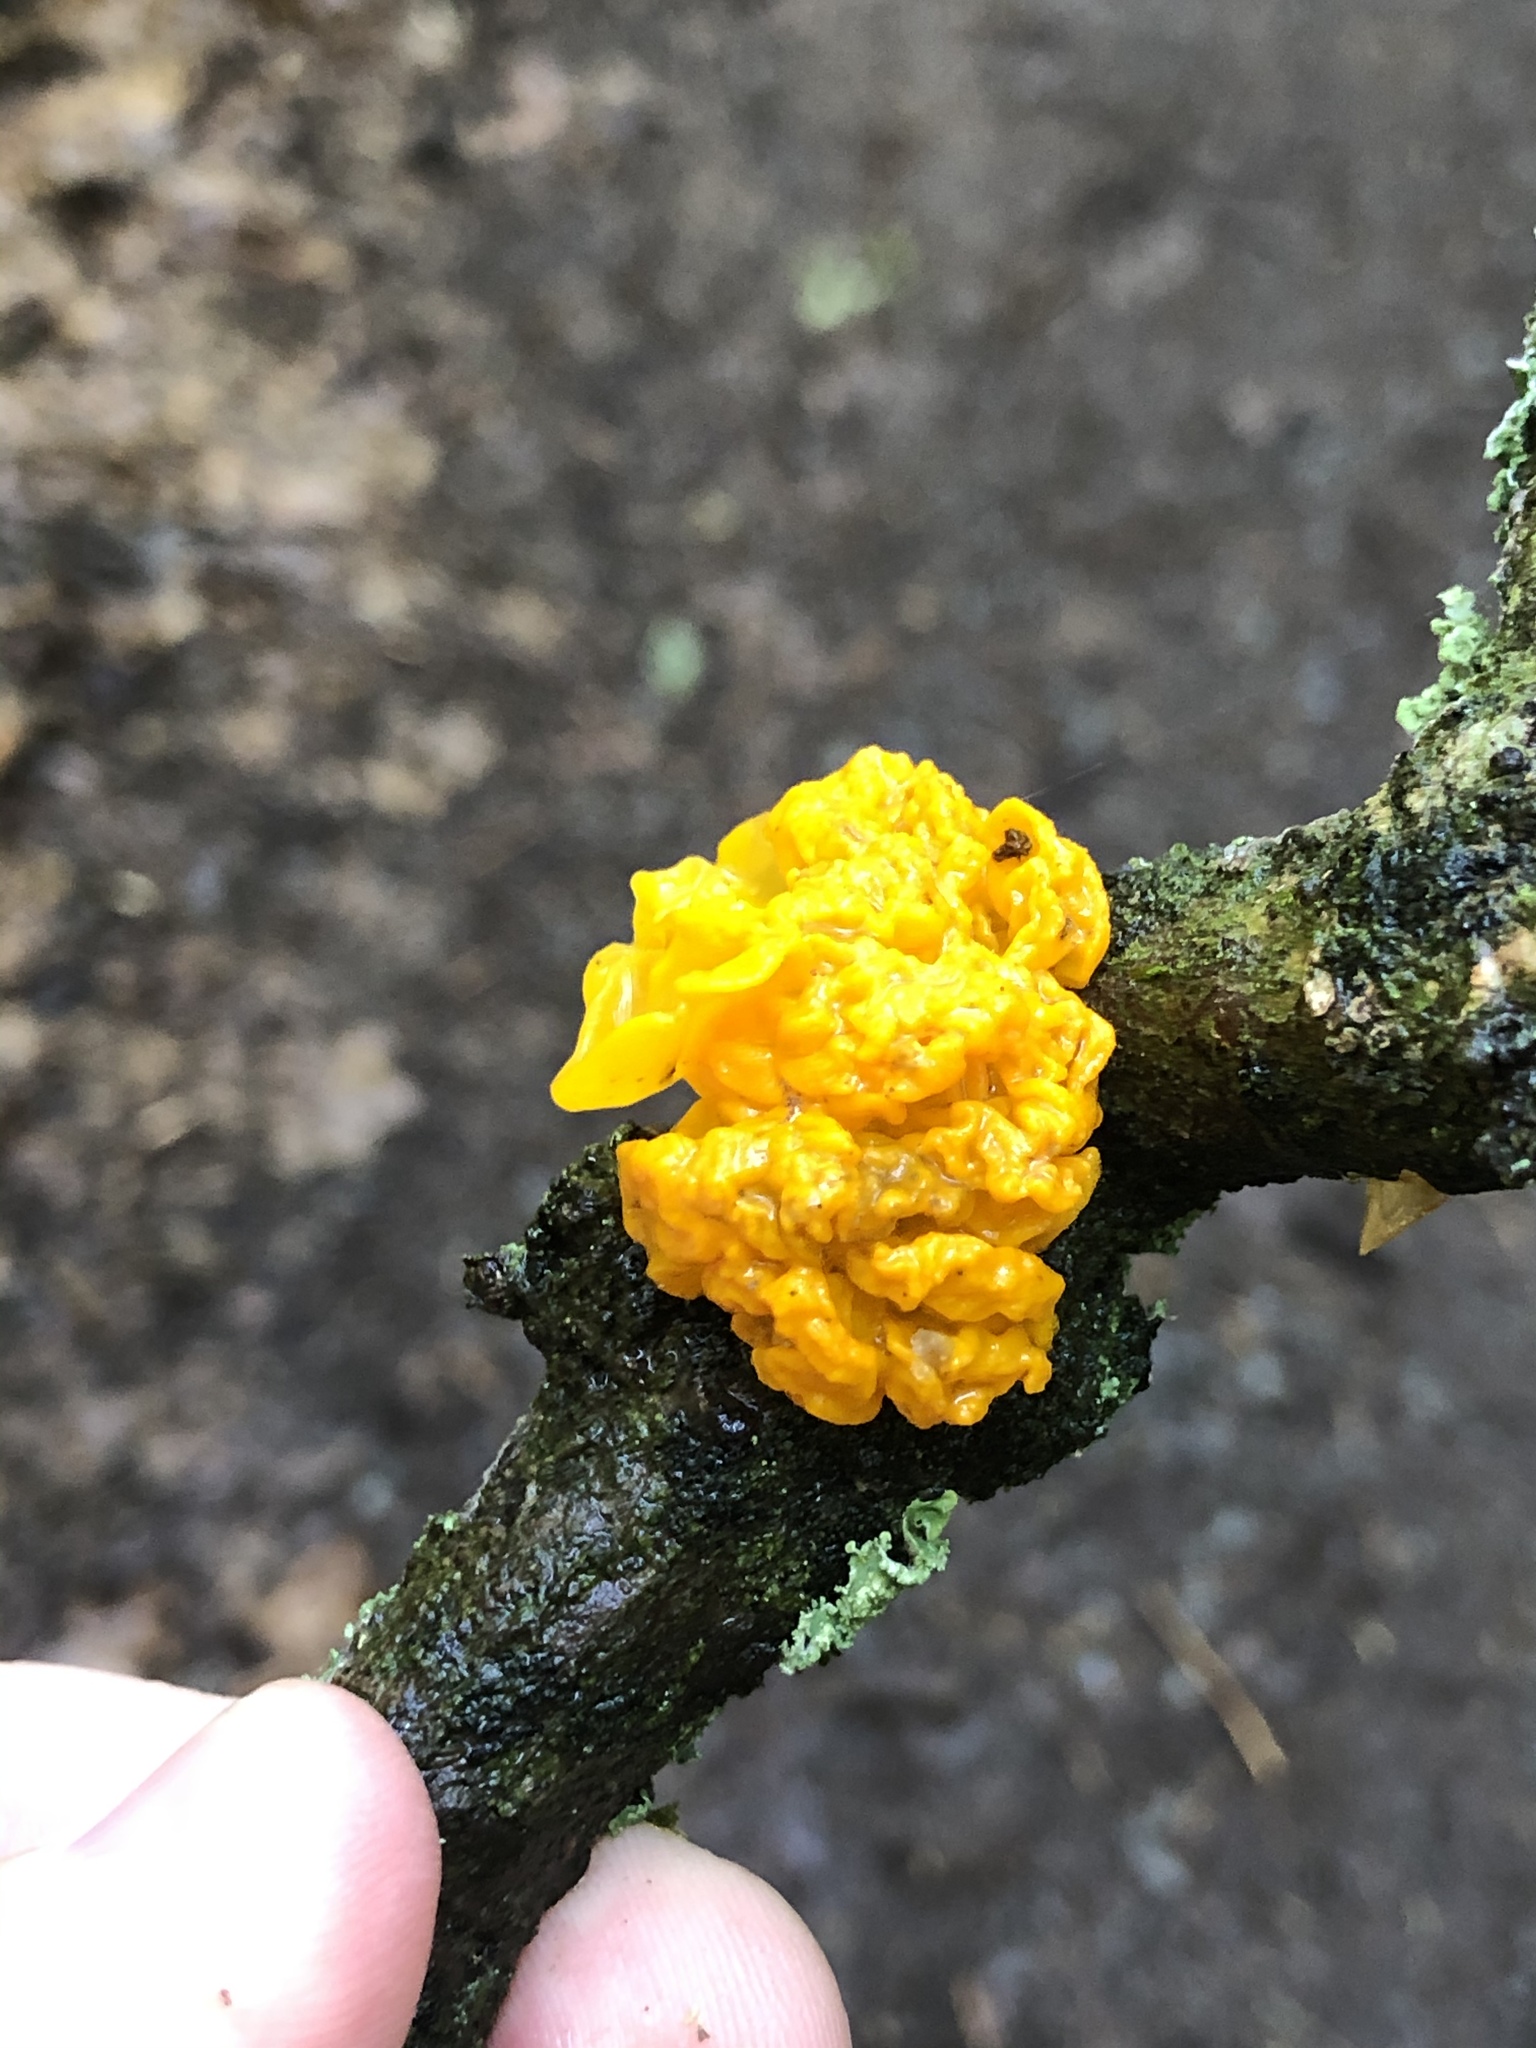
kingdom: Fungi
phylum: Basidiomycota
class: Tremellomycetes
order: Tremellales
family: Tremellaceae
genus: Tremella
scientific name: Tremella mesenterica
